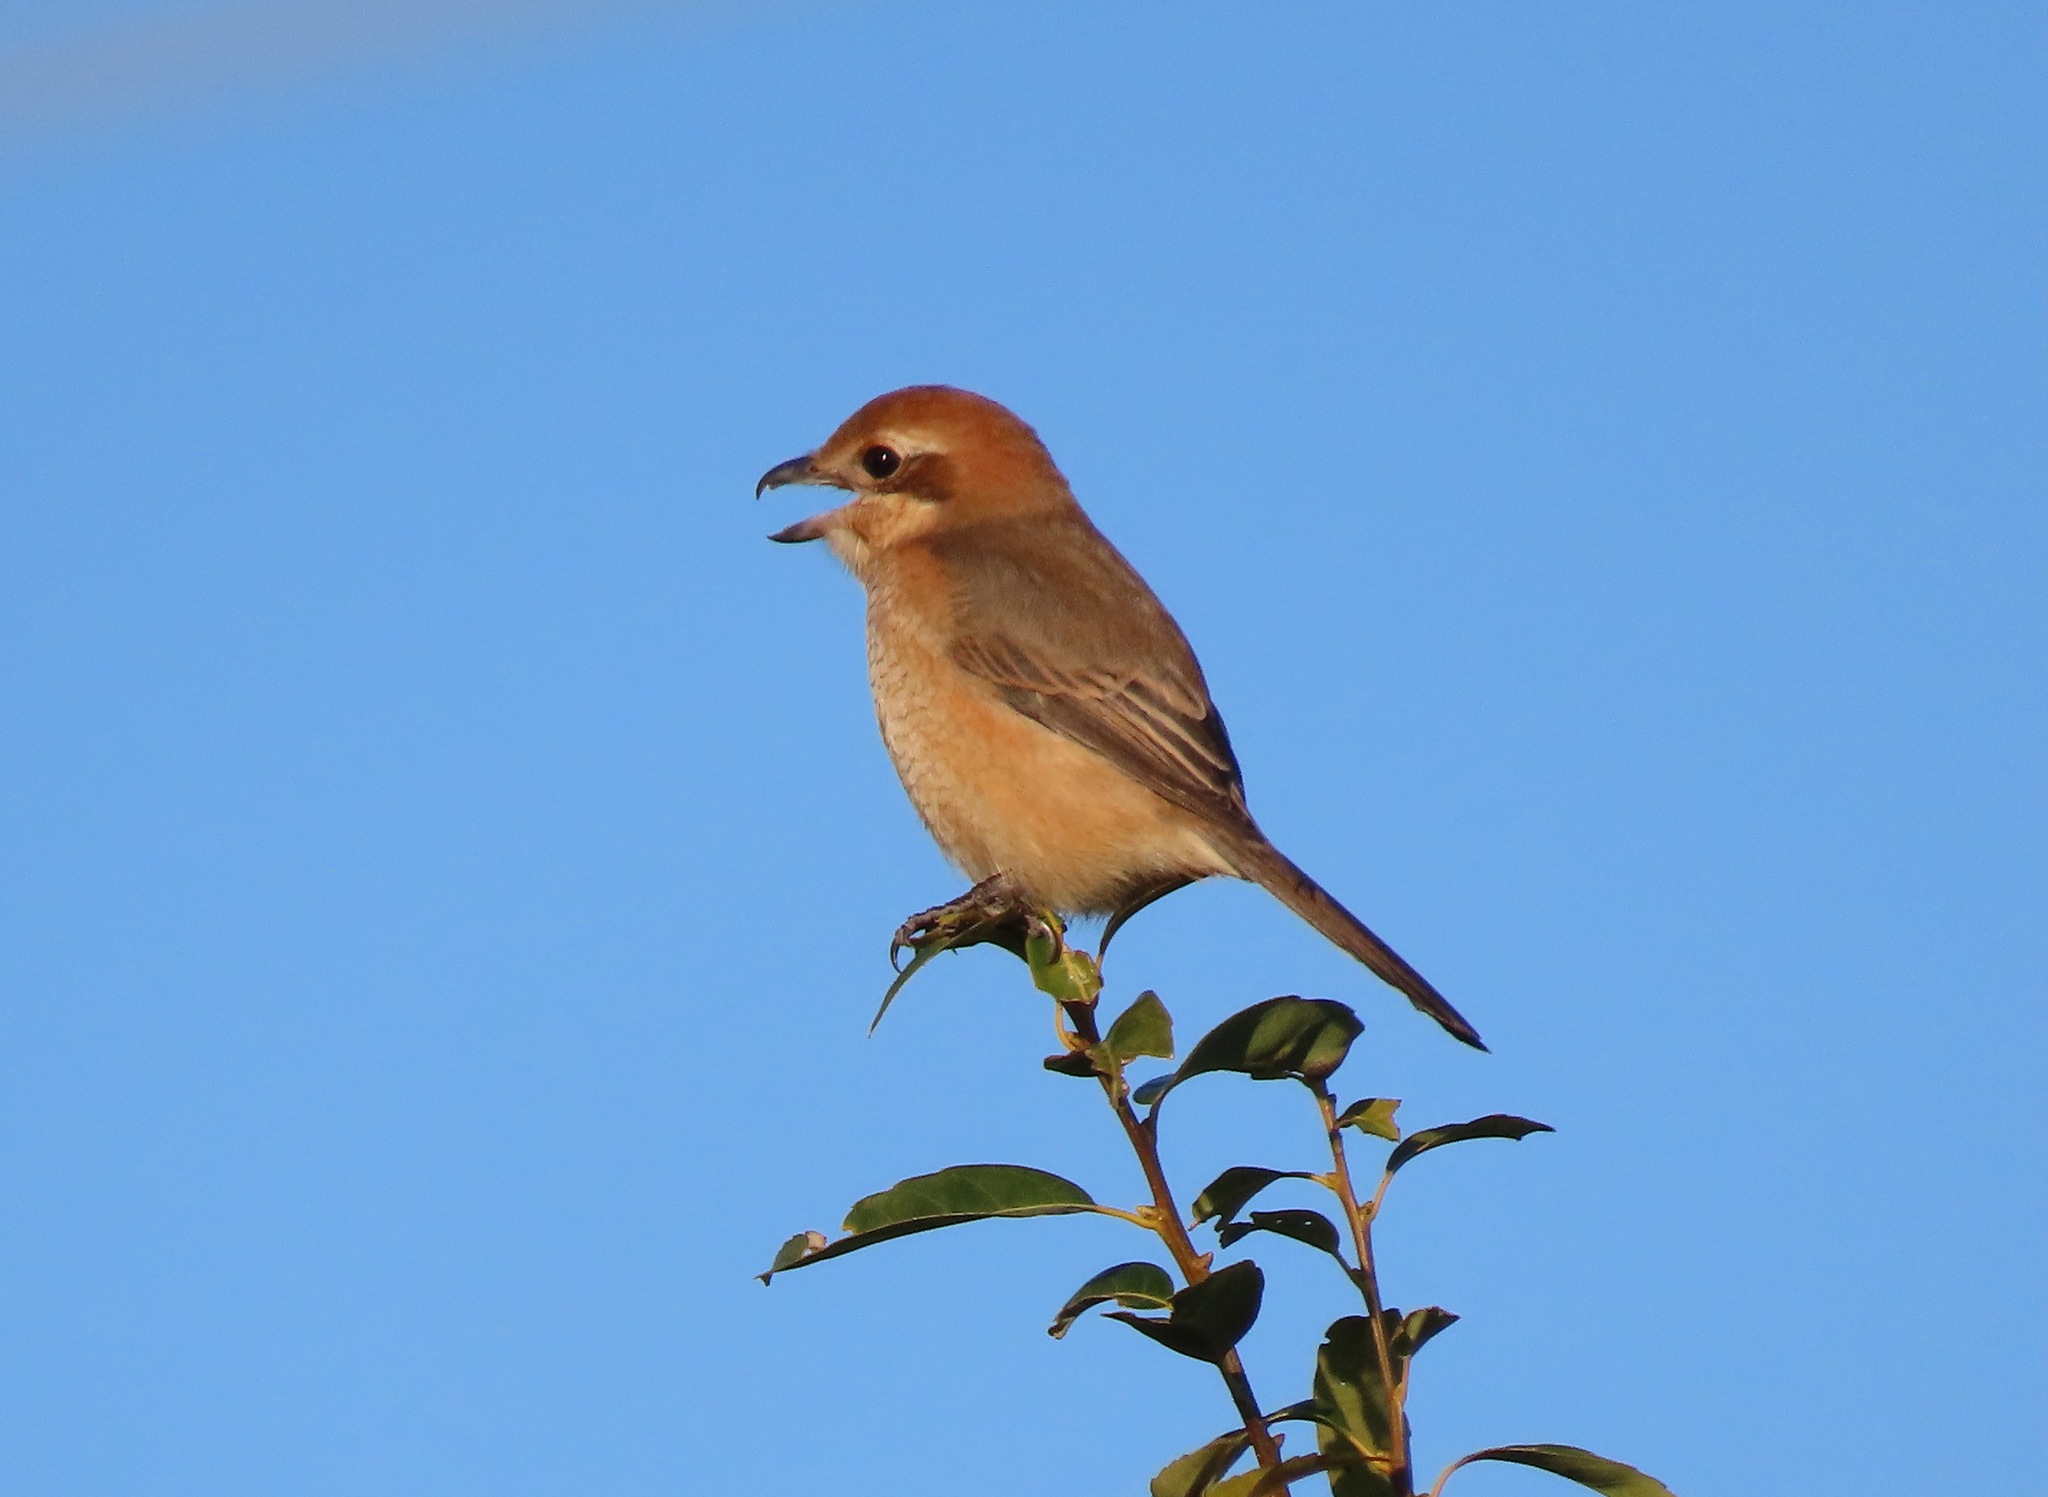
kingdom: Animalia
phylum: Chordata
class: Aves
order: Passeriformes
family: Laniidae
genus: Lanius
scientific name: Lanius bucephalus
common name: Bull-headed shrike
